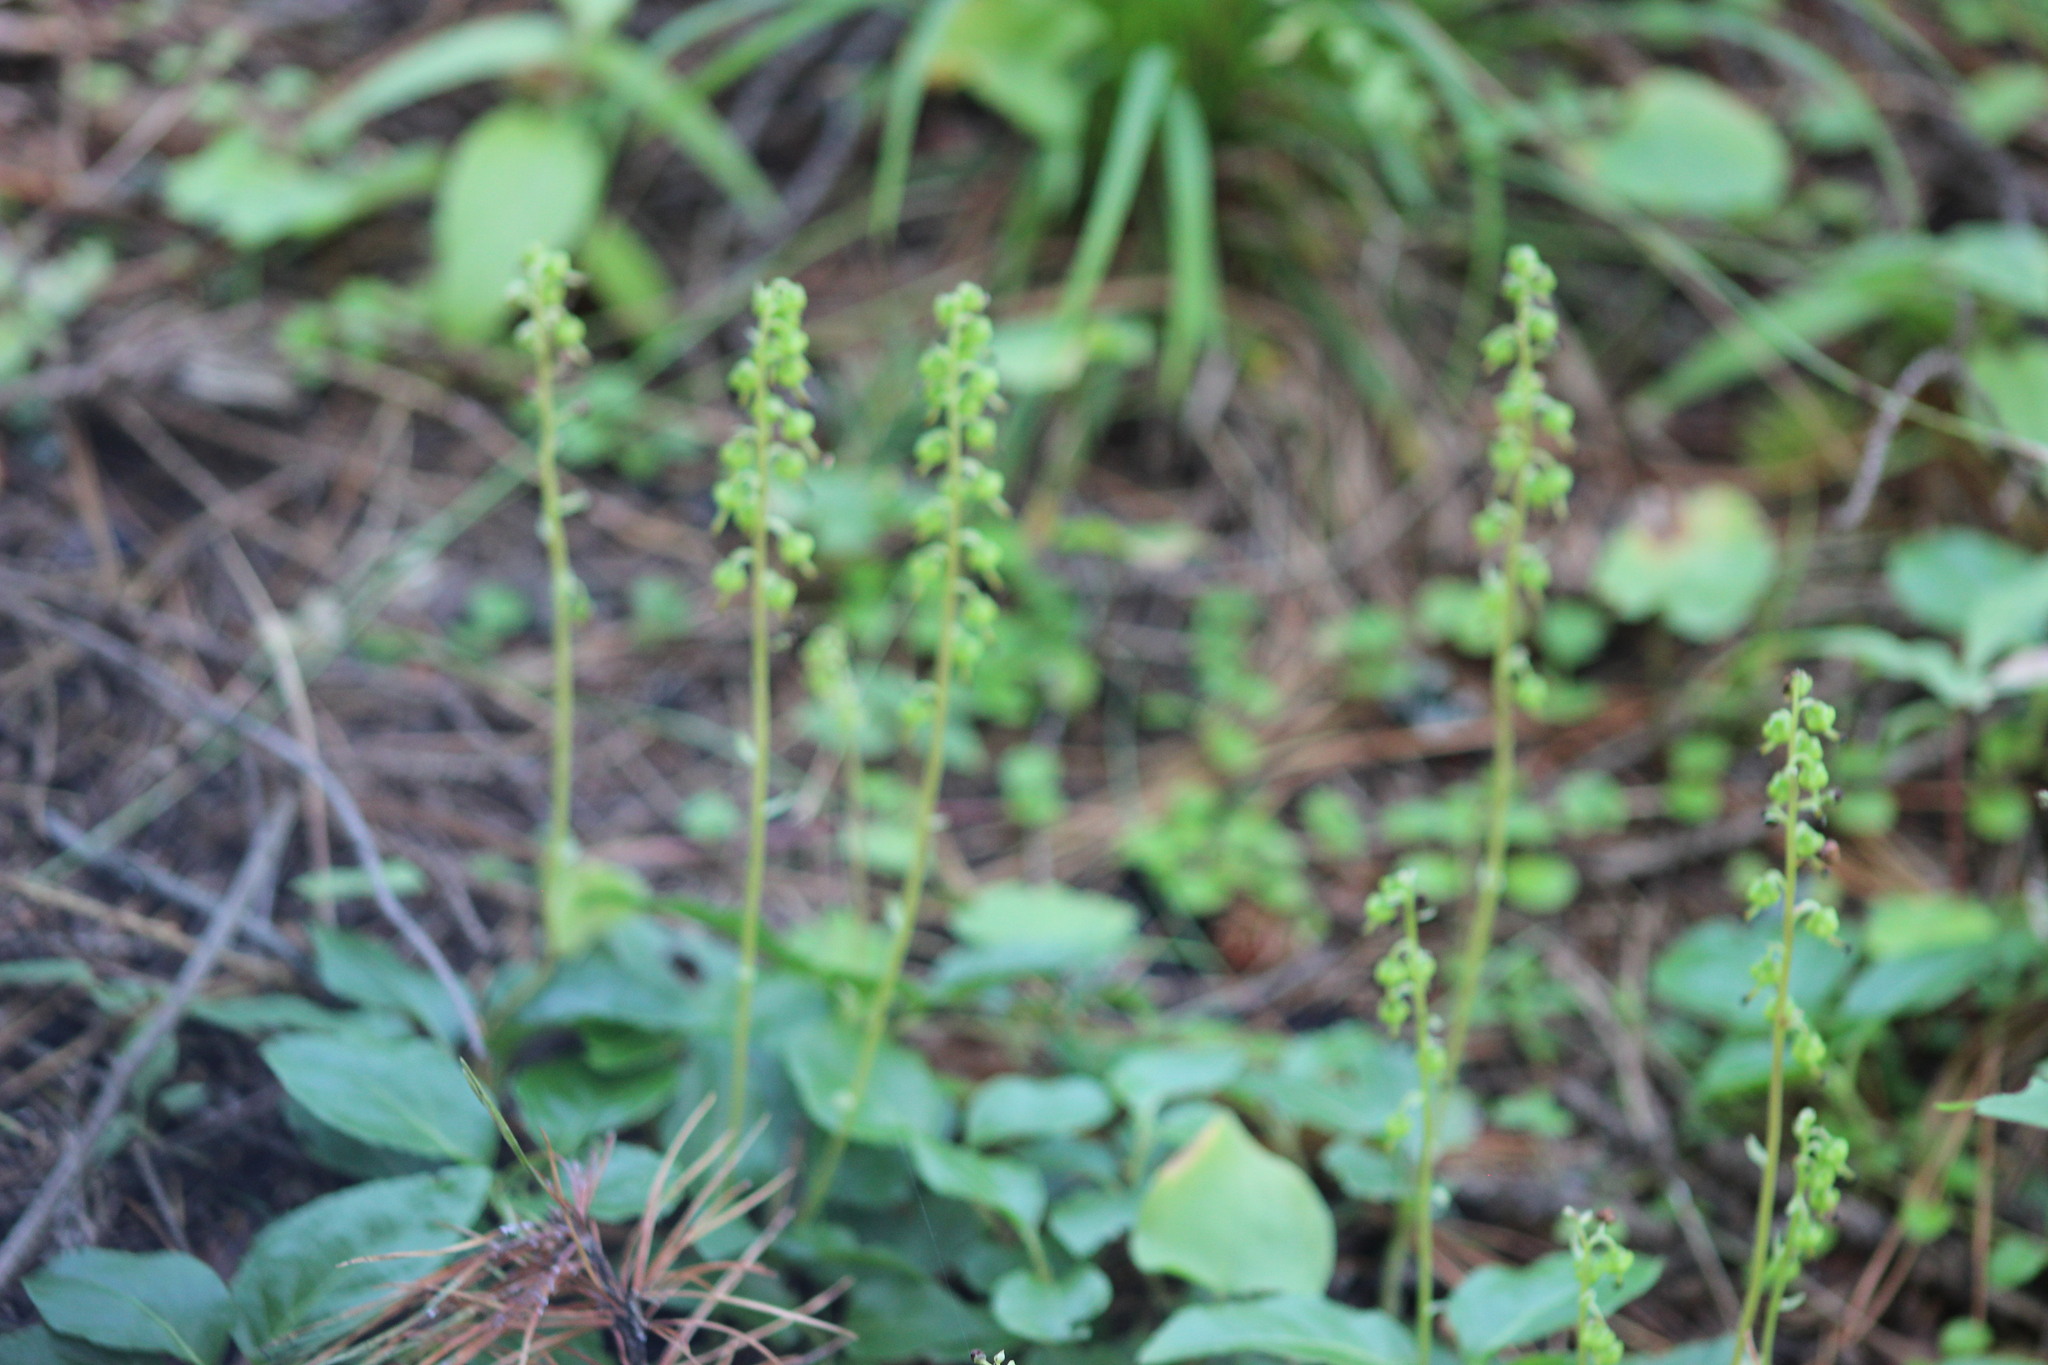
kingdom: Plantae
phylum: Tracheophyta
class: Magnoliopsida
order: Ericales
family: Ericaceae
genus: Orthilia
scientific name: Orthilia secunda
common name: One-sided orthilia
